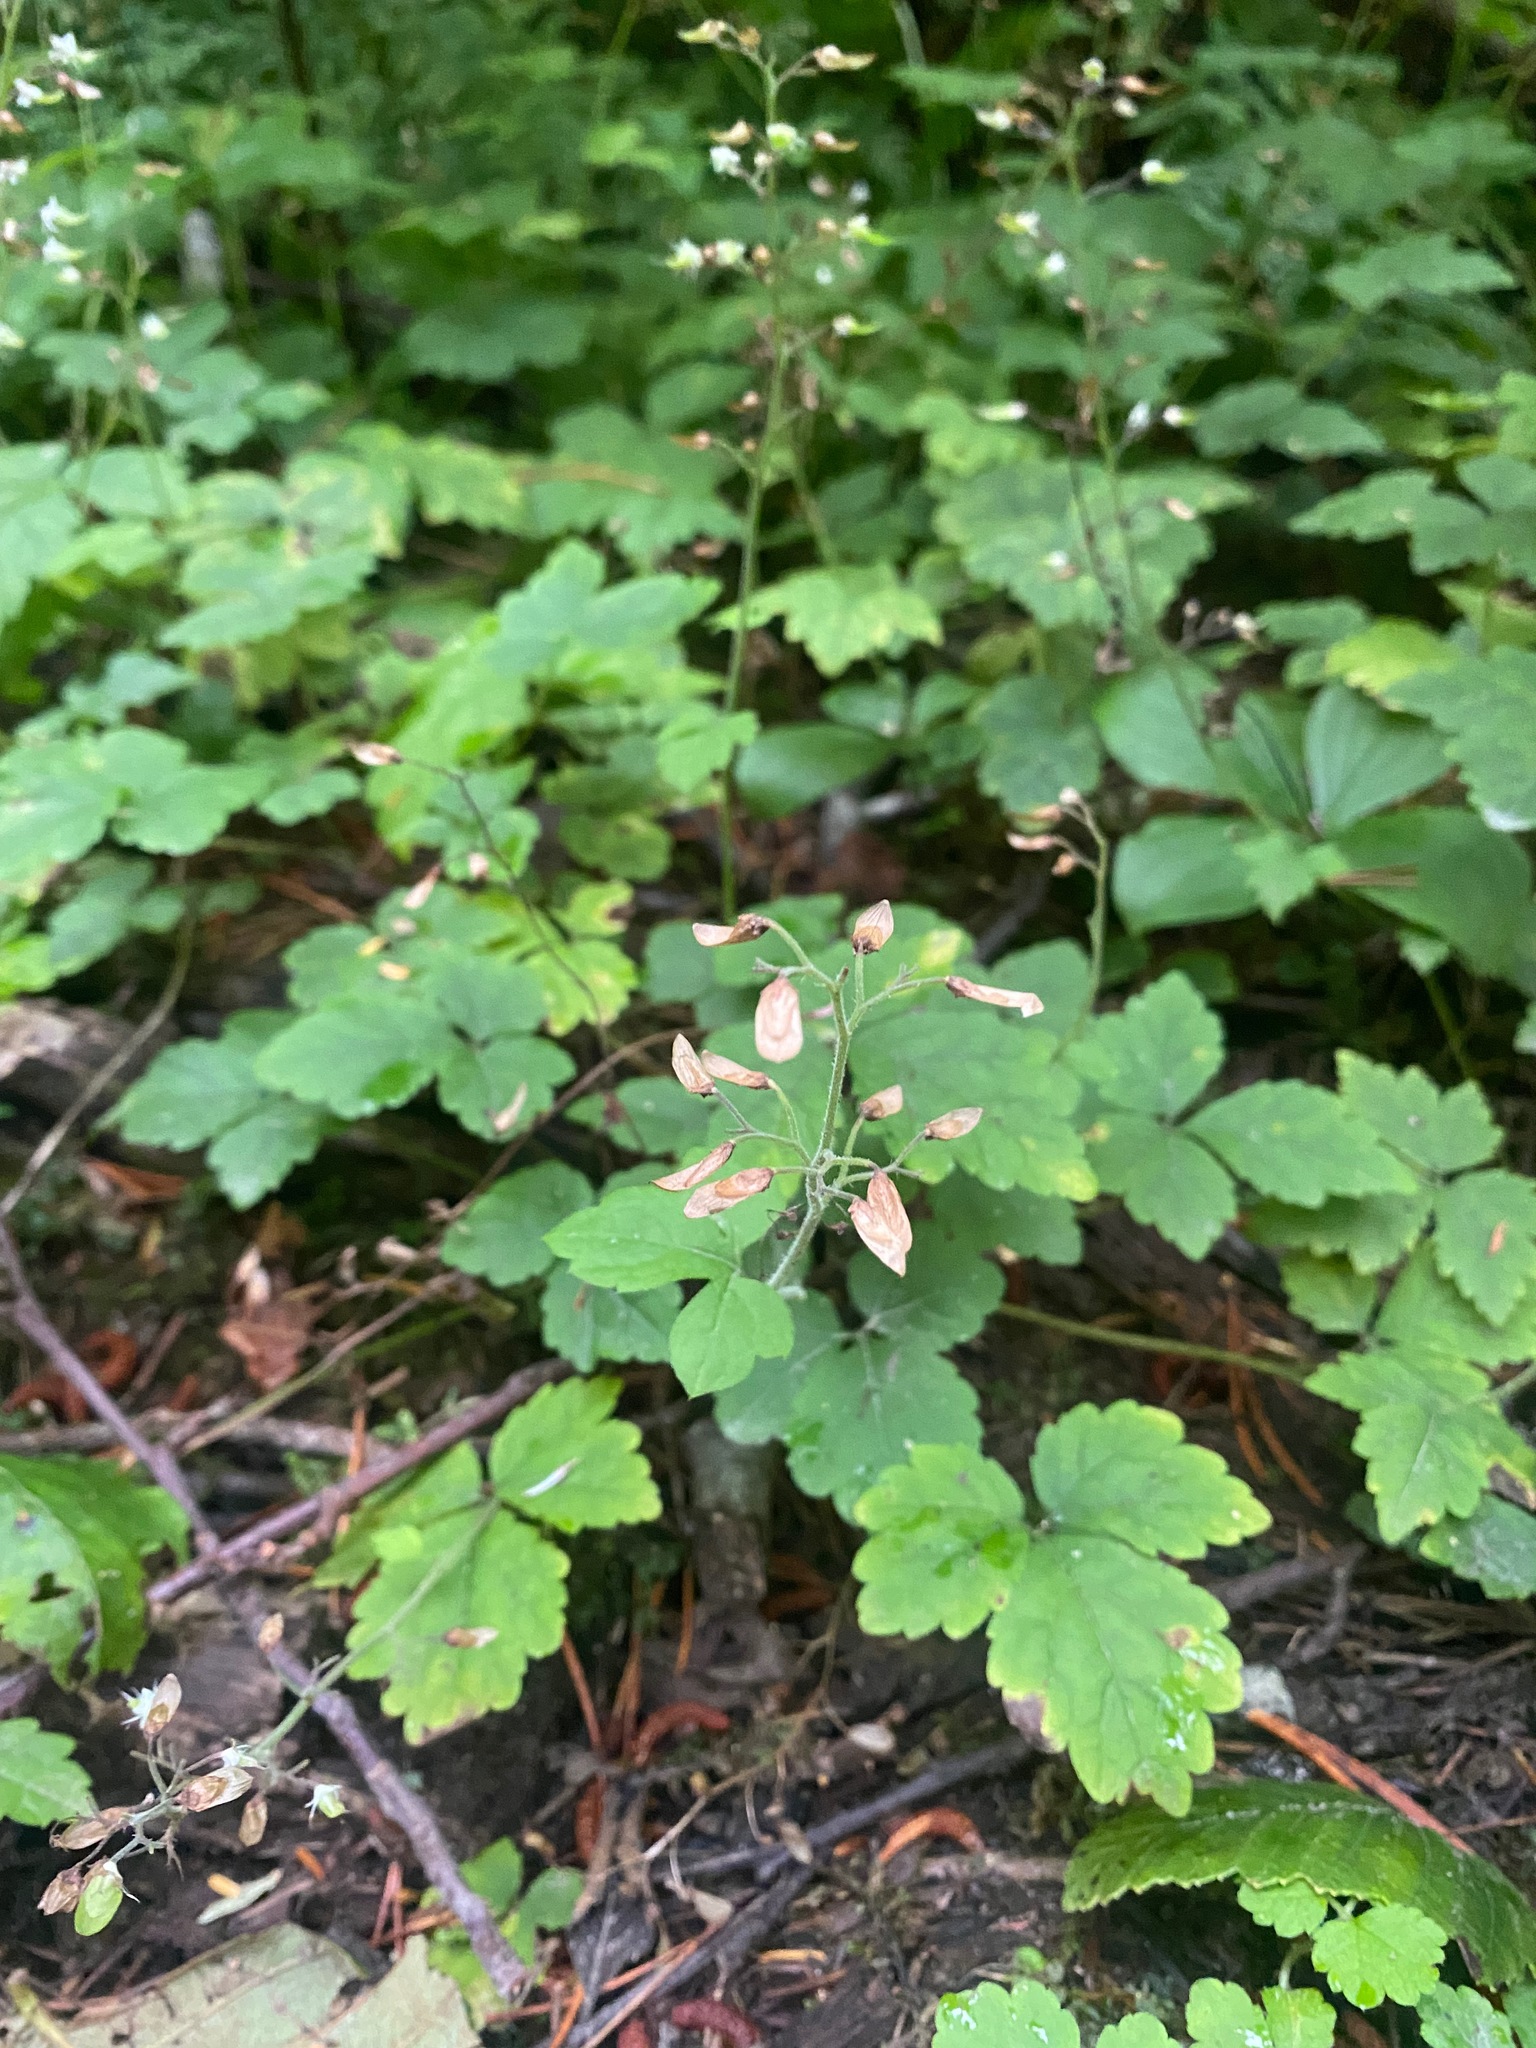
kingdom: Plantae
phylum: Tracheophyta
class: Magnoliopsida
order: Saxifragales
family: Saxifragaceae
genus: Tiarella
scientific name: Tiarella trifoliata
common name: Sugar-scoop
